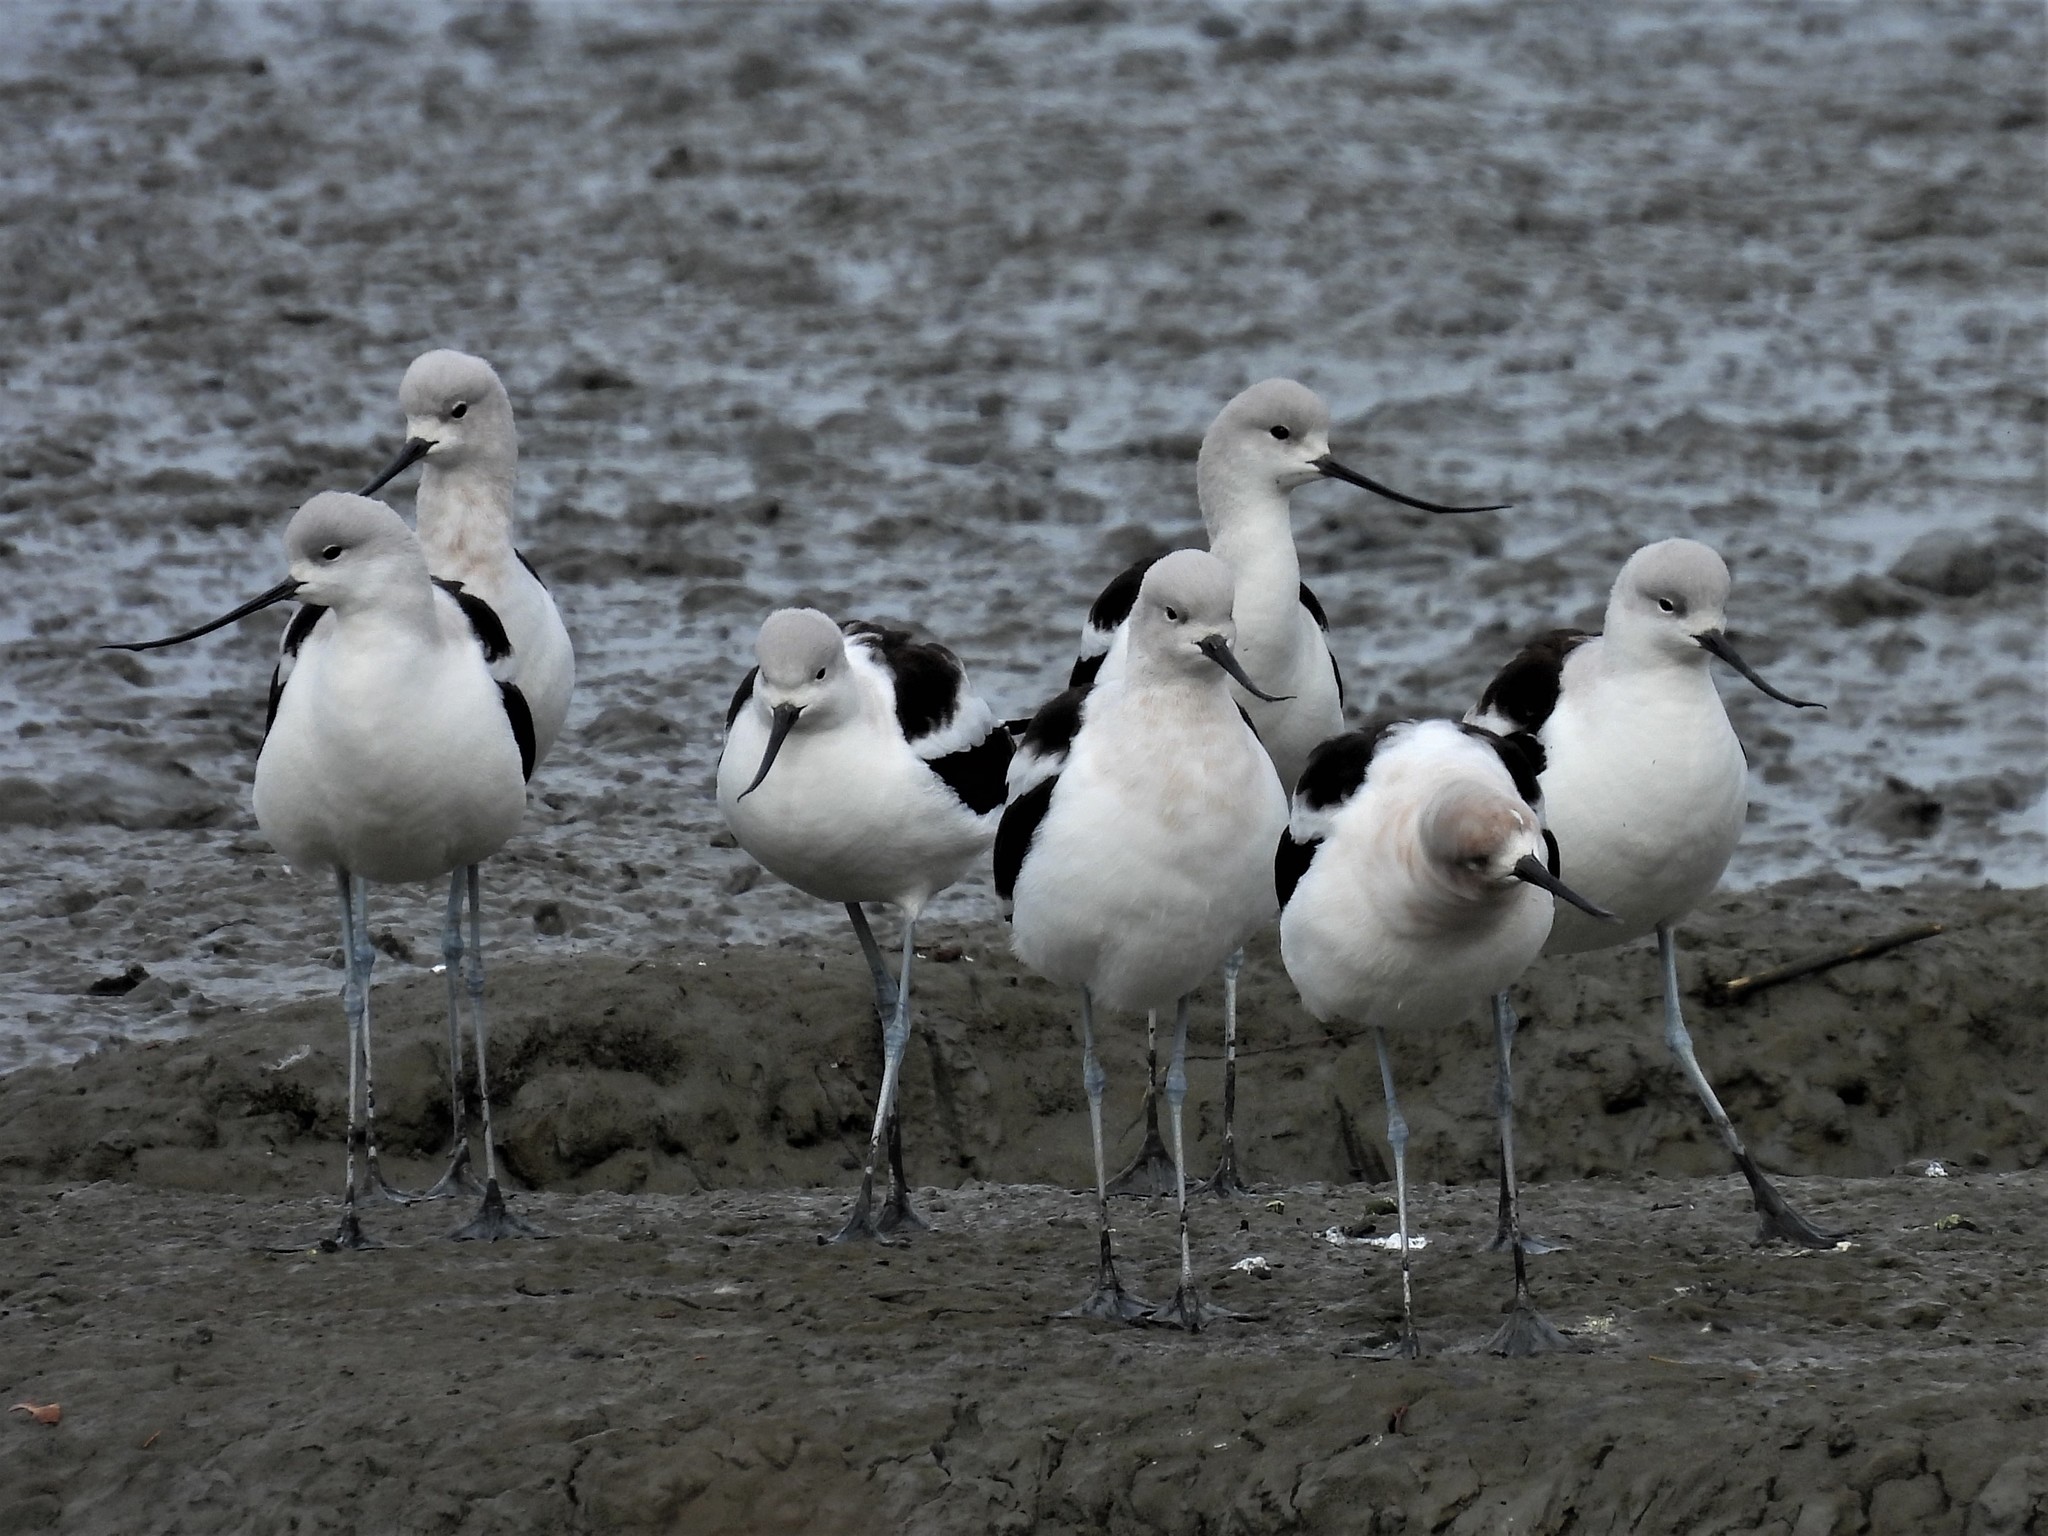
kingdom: Animalia
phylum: Chordata
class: Aves
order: Charadriiformes
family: Recurvirostridae
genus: Recurvirostra
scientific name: Recurvirostra americana
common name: American avocet
